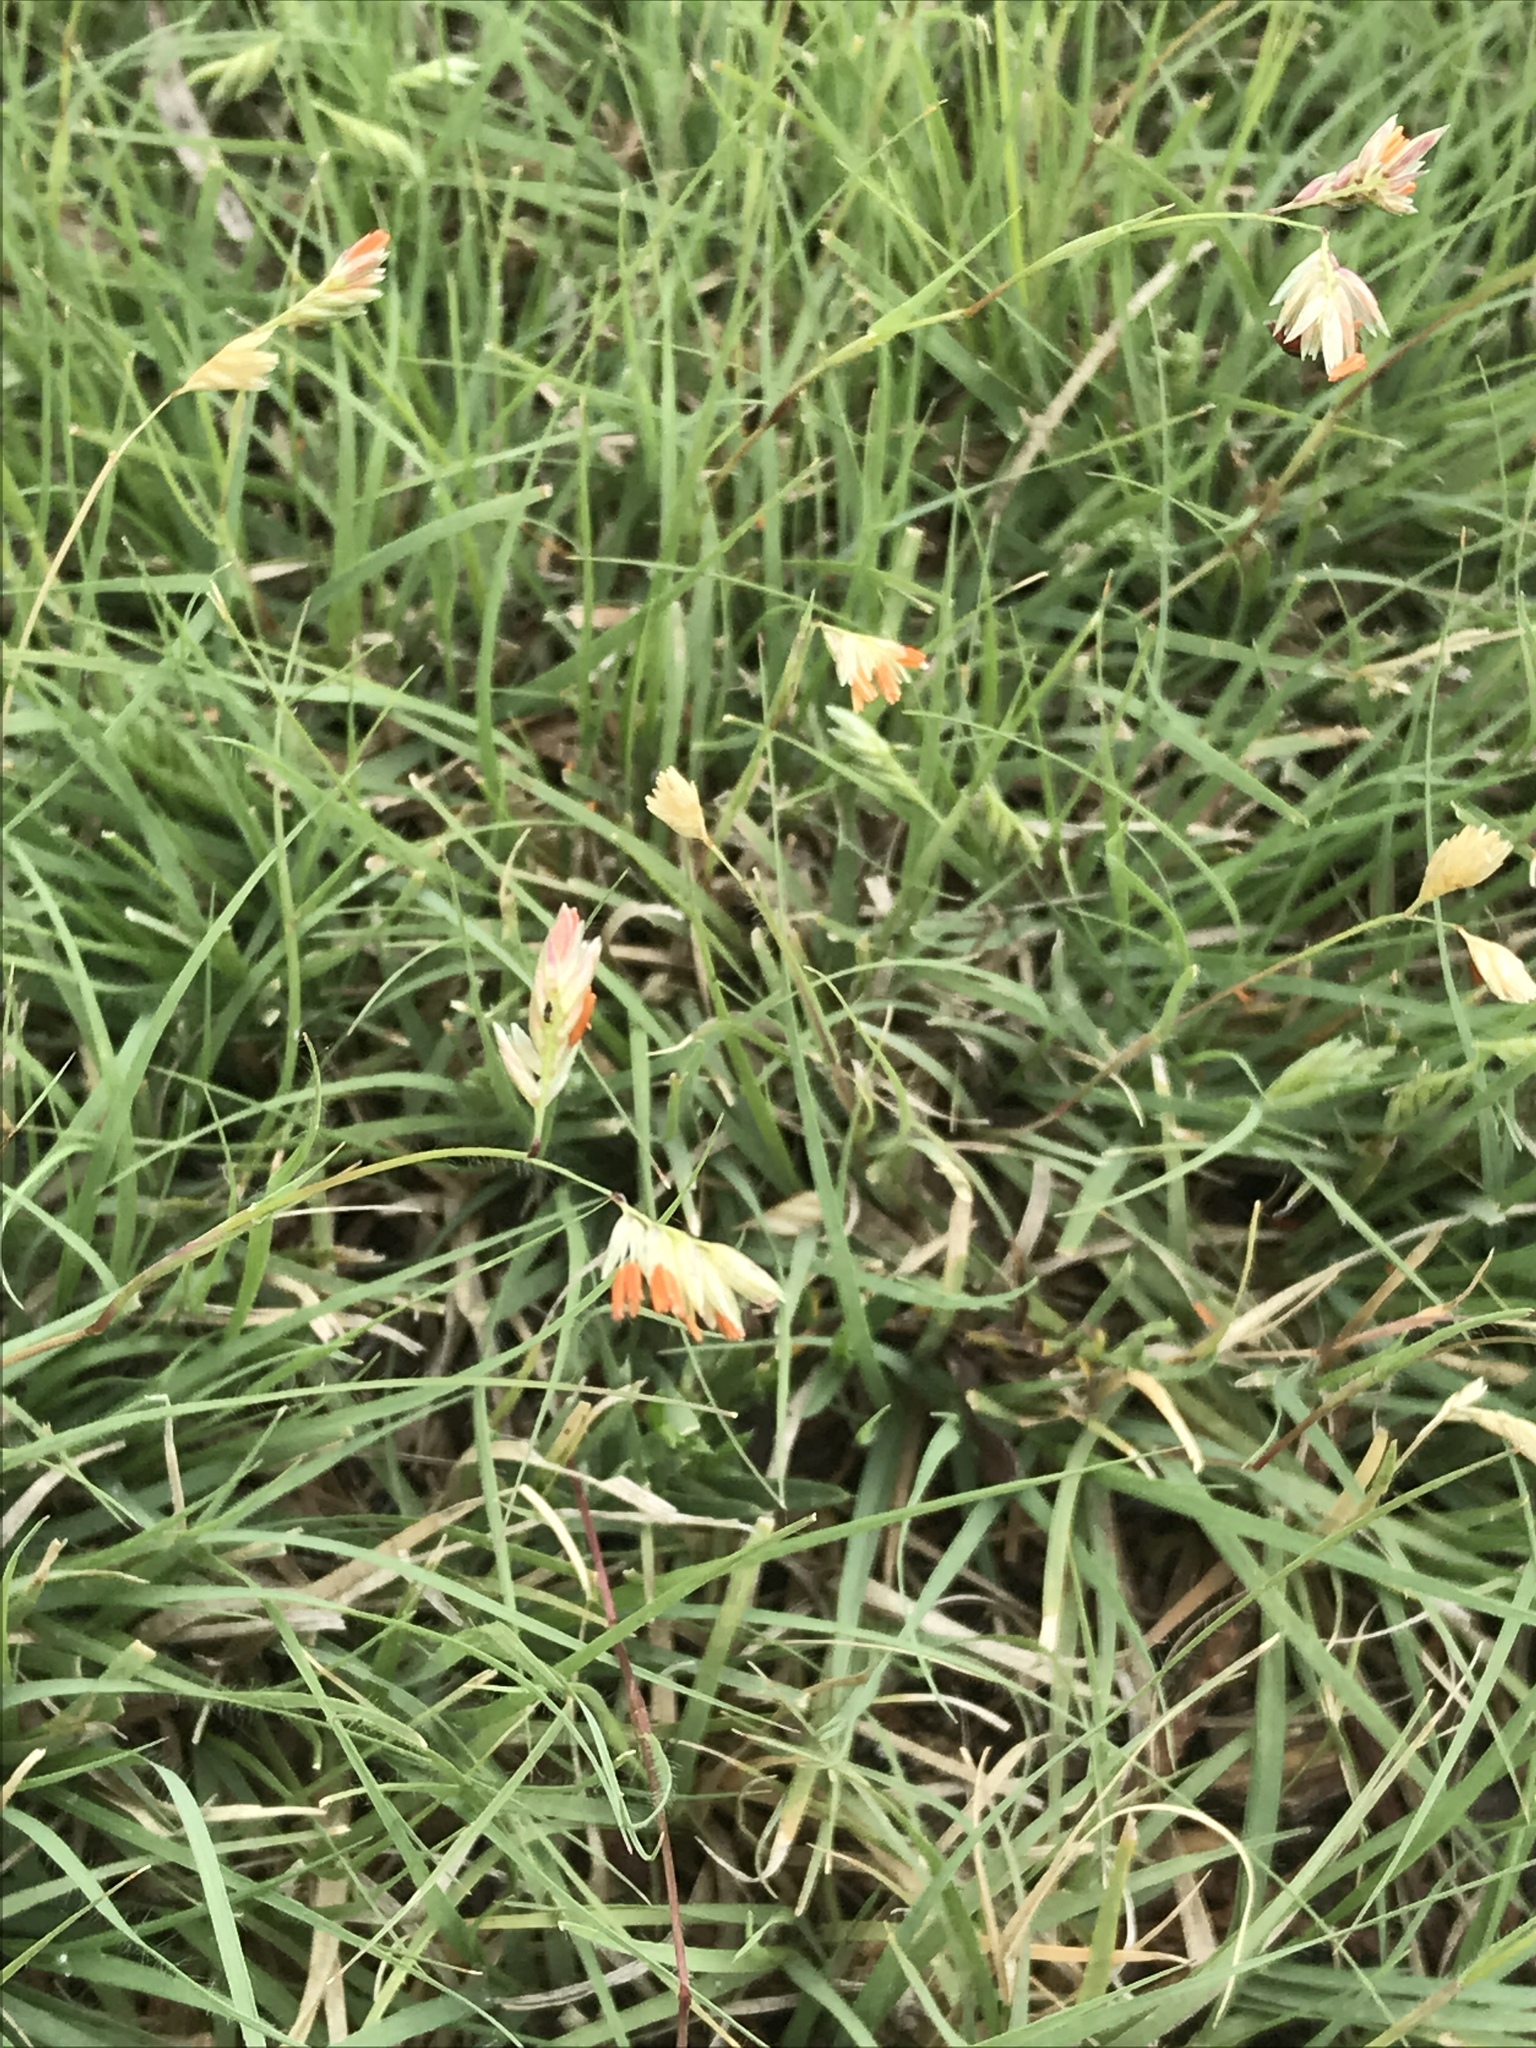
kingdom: Plantae
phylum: Tracheophyta
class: Liliopsida
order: Poales
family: Poaceae
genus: Bouteloua
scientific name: Bouteloua dactyloides
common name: Buffalo grass
